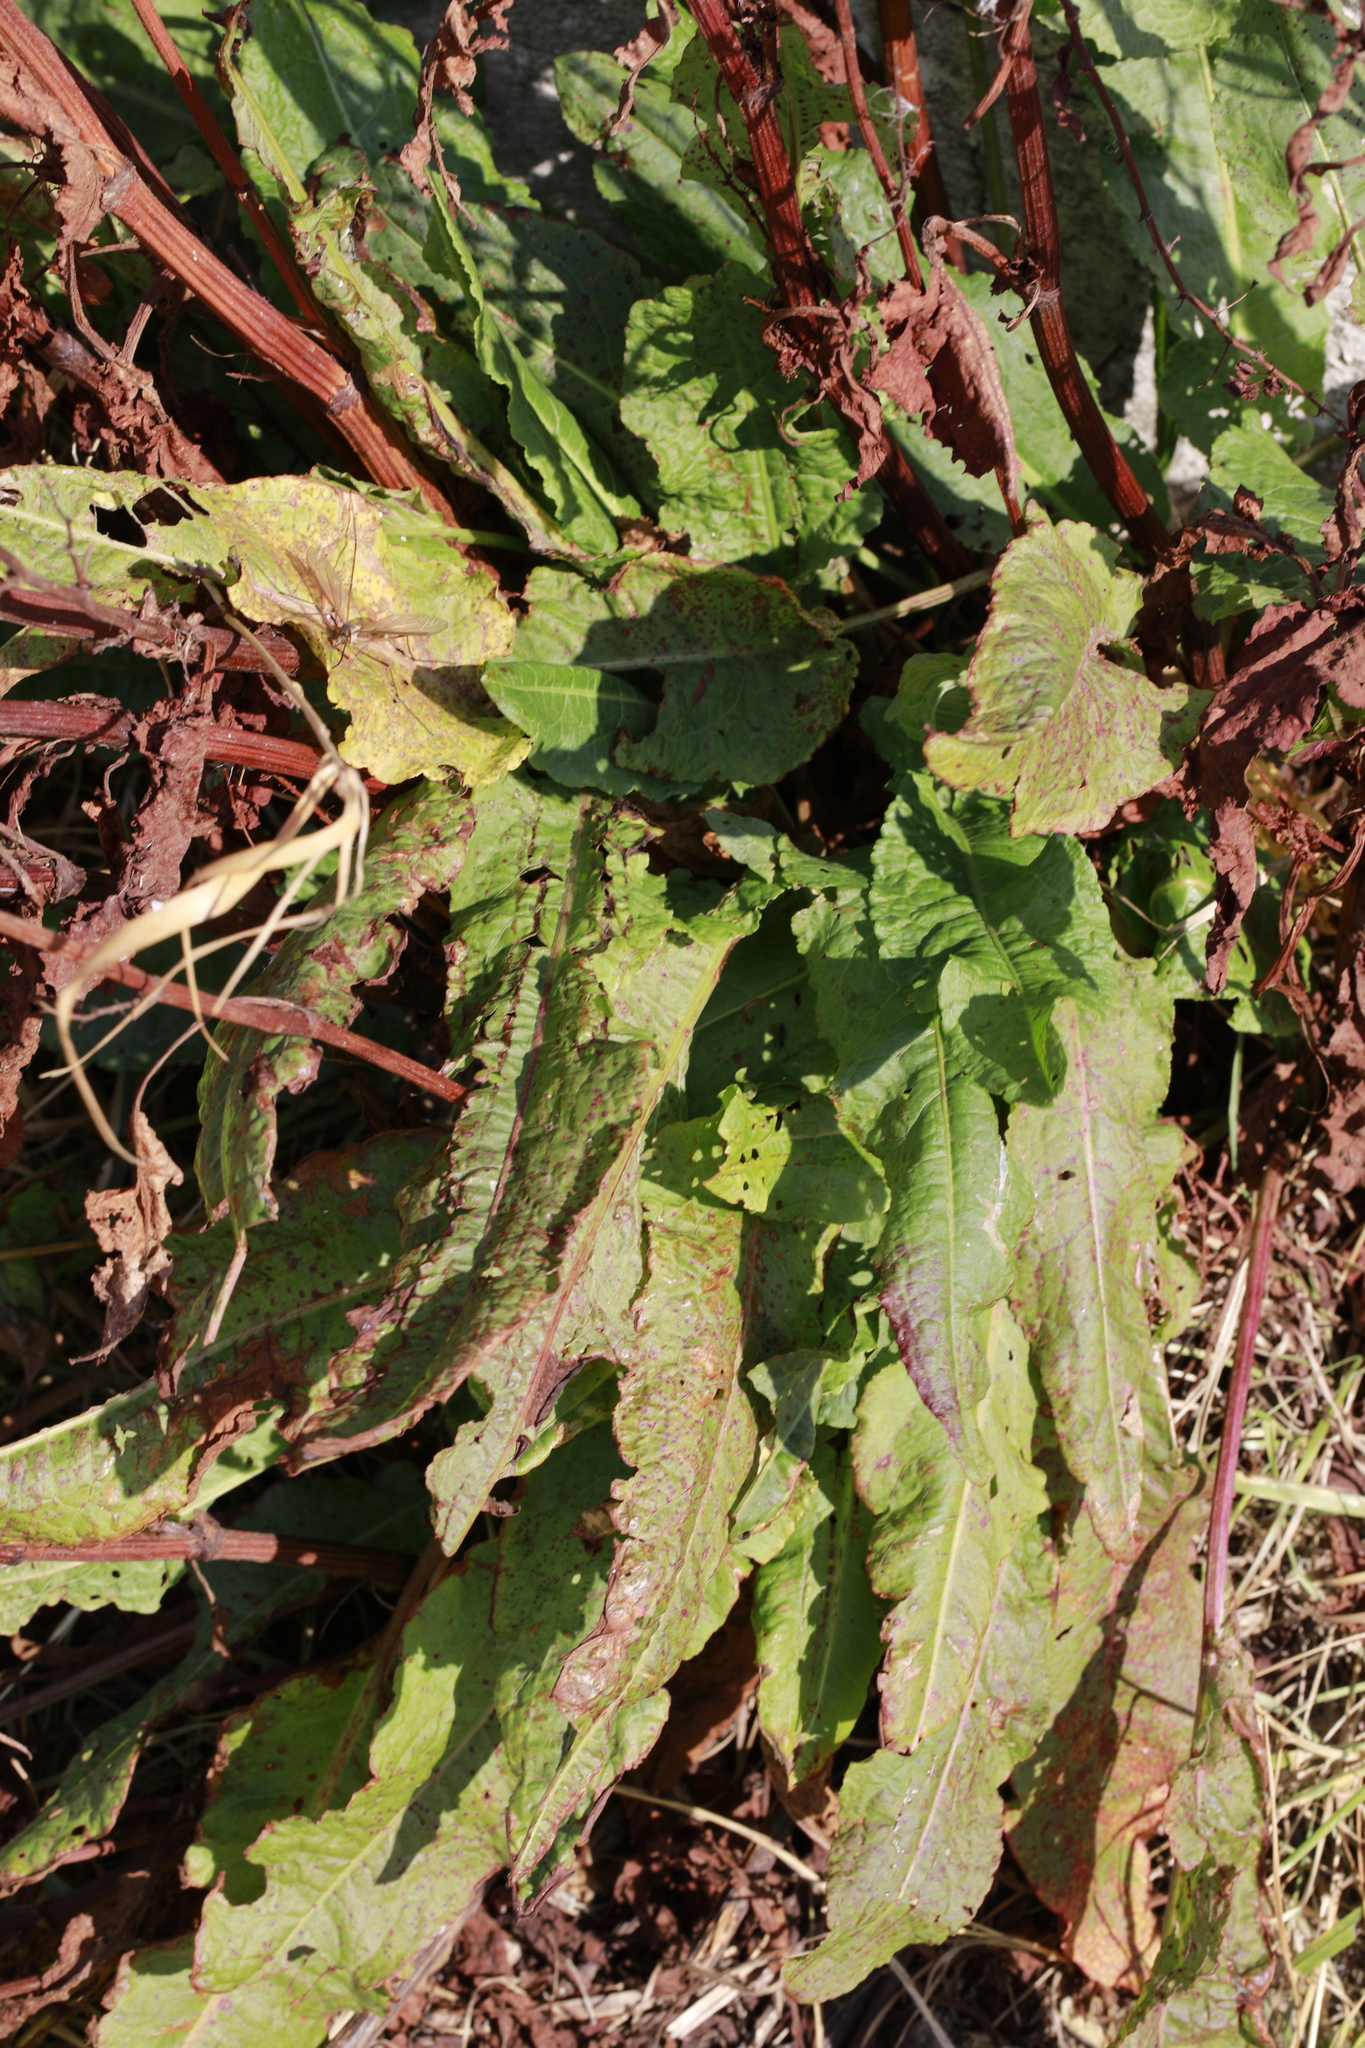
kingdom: Plantae
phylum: Tracheophyta
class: Magnoliopsida
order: Caryophyllales
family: Polygonaceae
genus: Rumex
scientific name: Rumex obtusifolius
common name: Bitter dock
